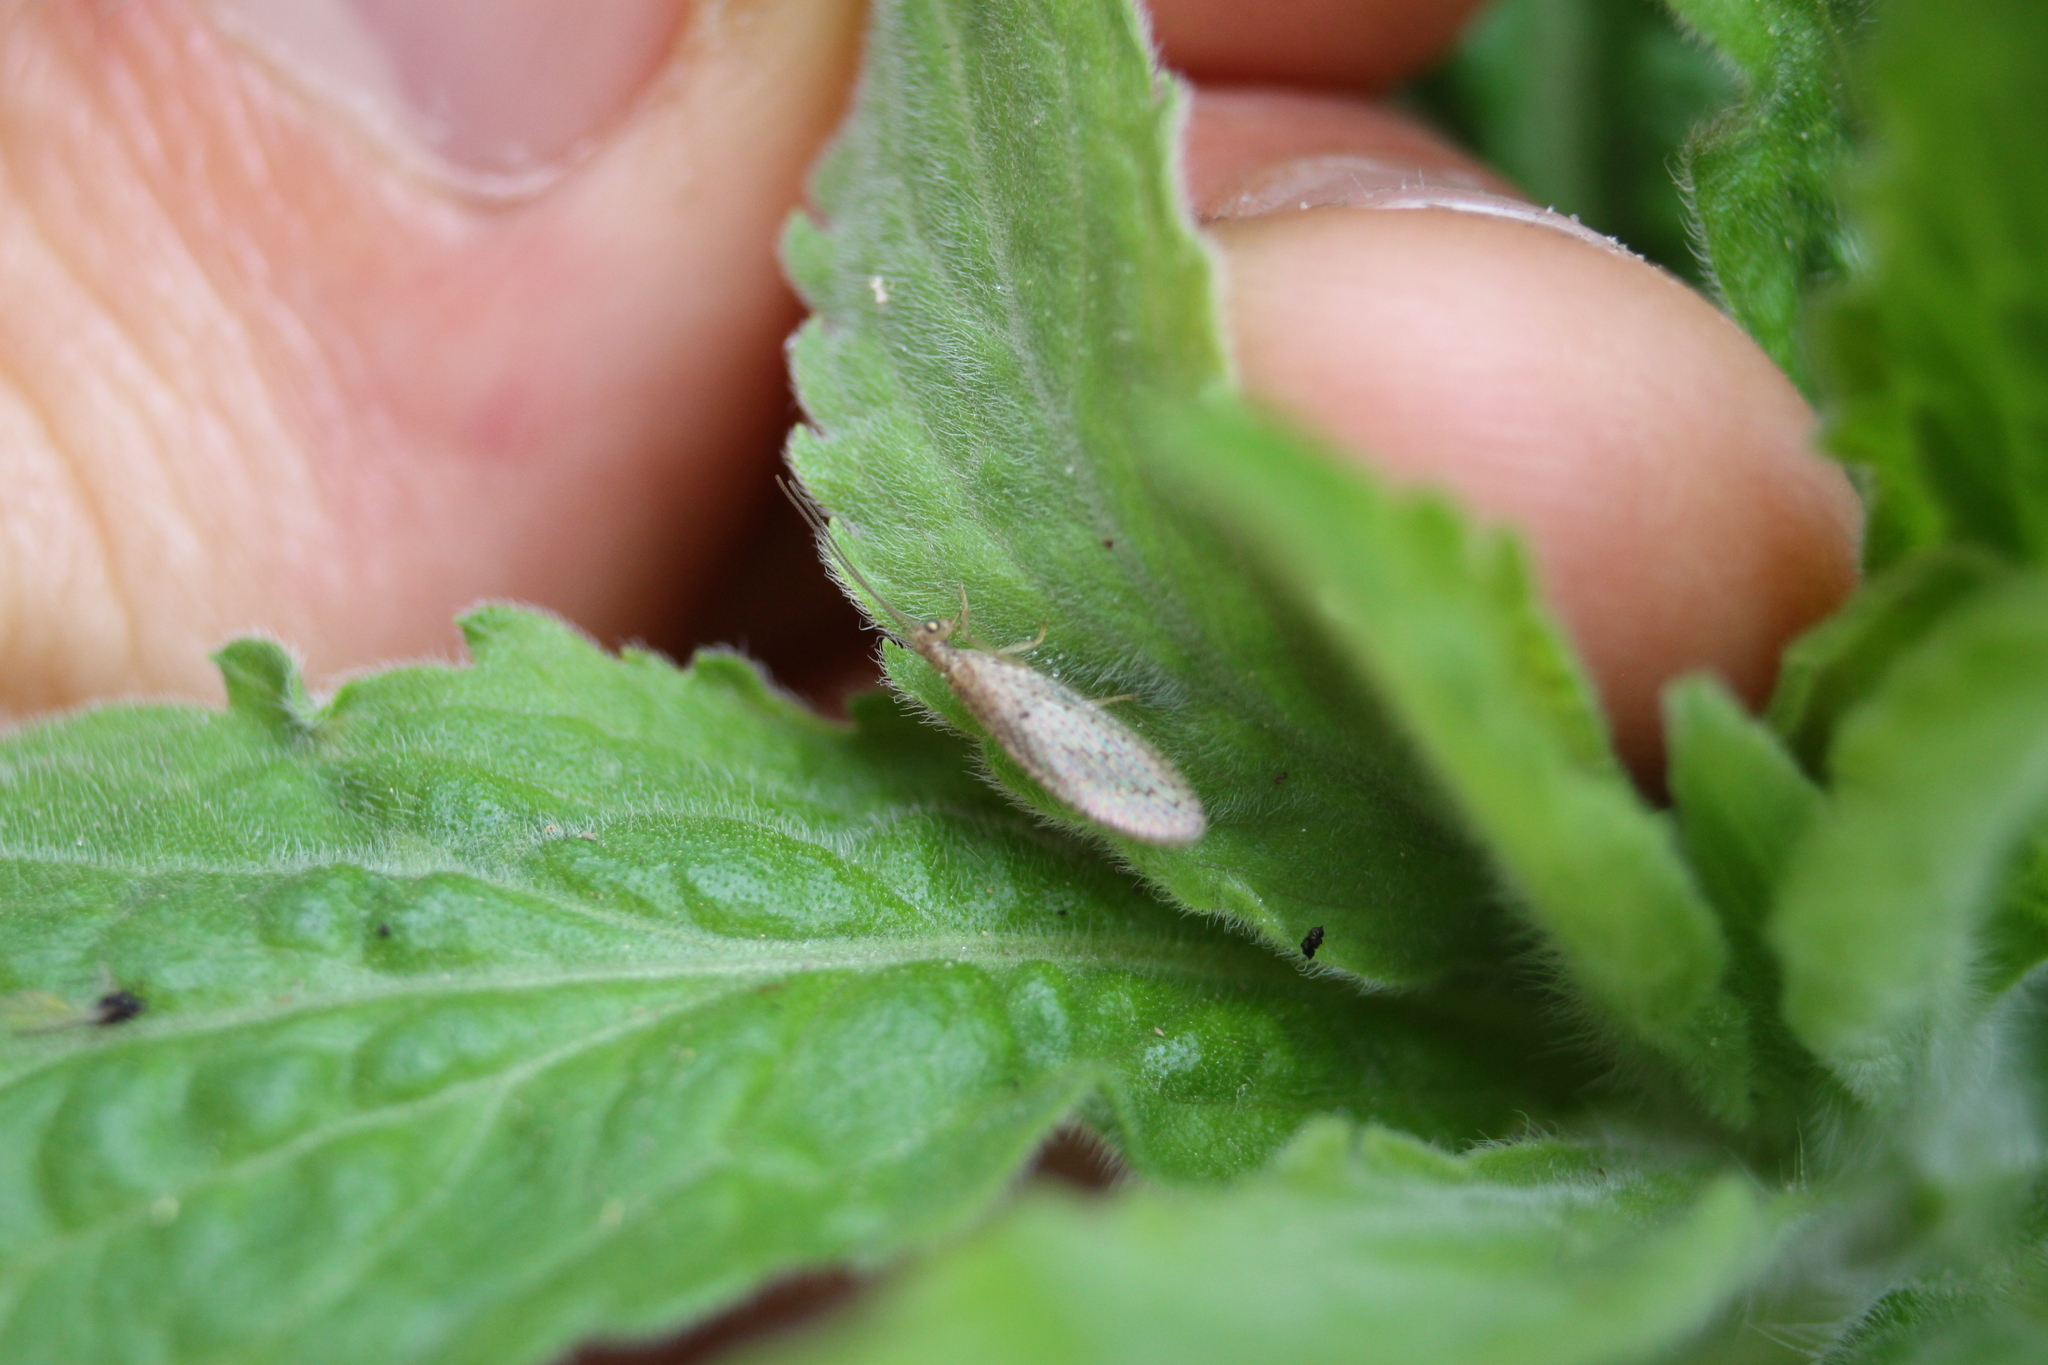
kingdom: Animalia
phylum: Arthropoda
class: Insecta
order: Neuroptera
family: Hemerobiidae
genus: Micromus
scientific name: Micromus tasmaniae
